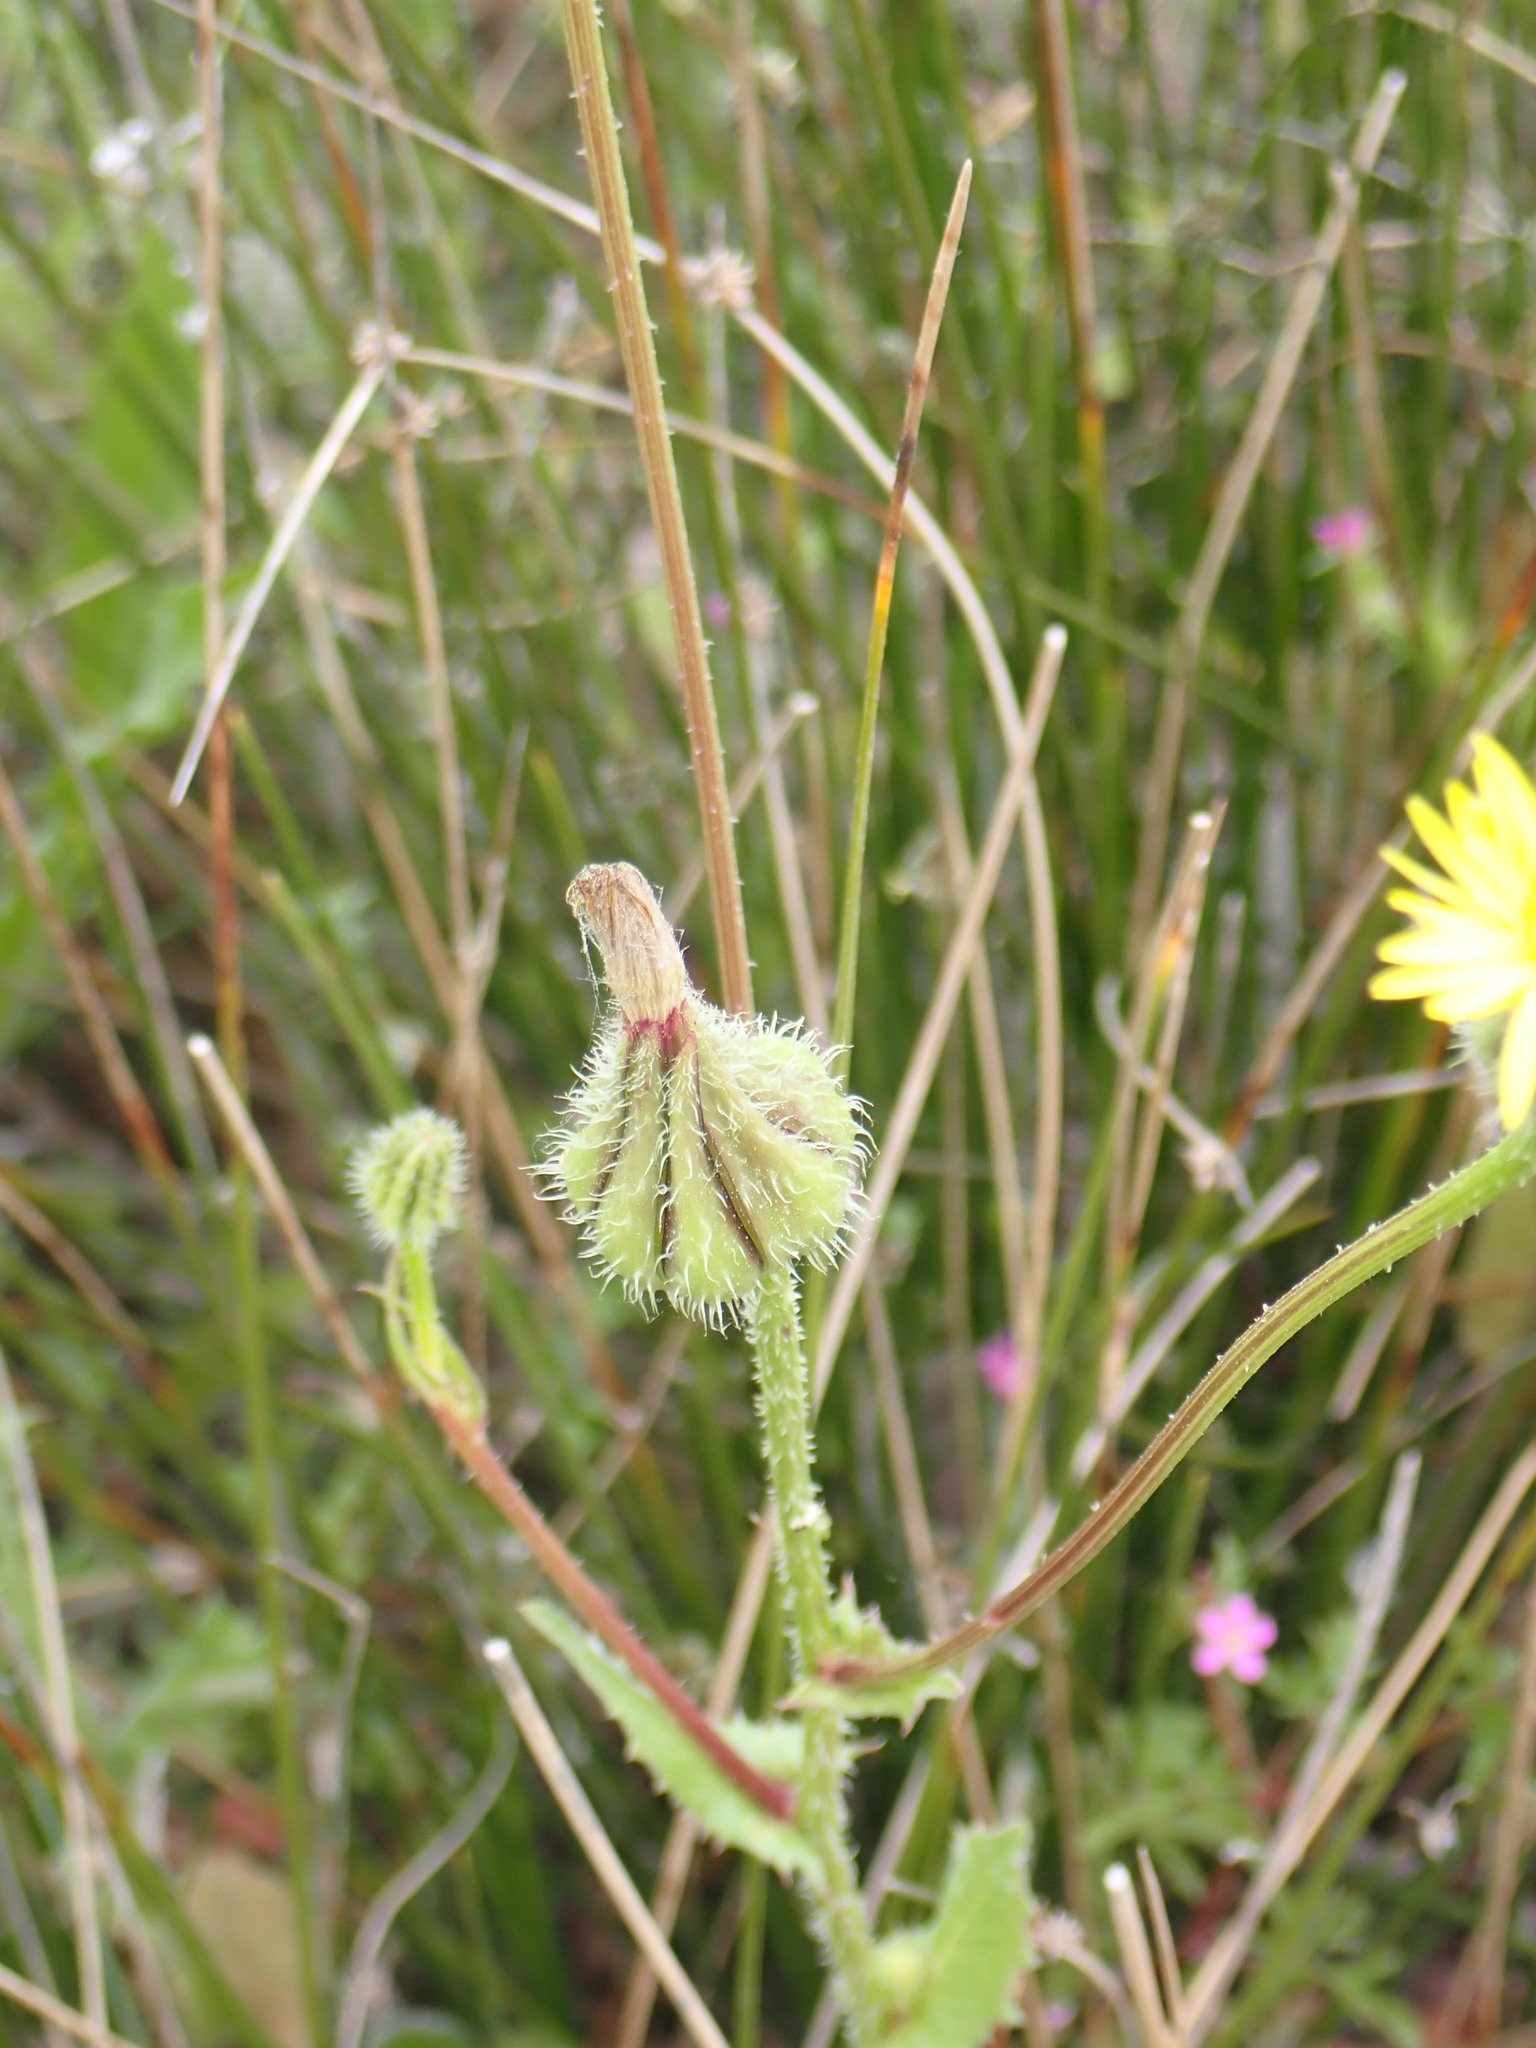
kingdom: Plantae
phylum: Tracheophyta
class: Magnoliopsida
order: Asterales
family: Asteraceae
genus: Urospermum
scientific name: Urospermum picroides
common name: False hawkbit
